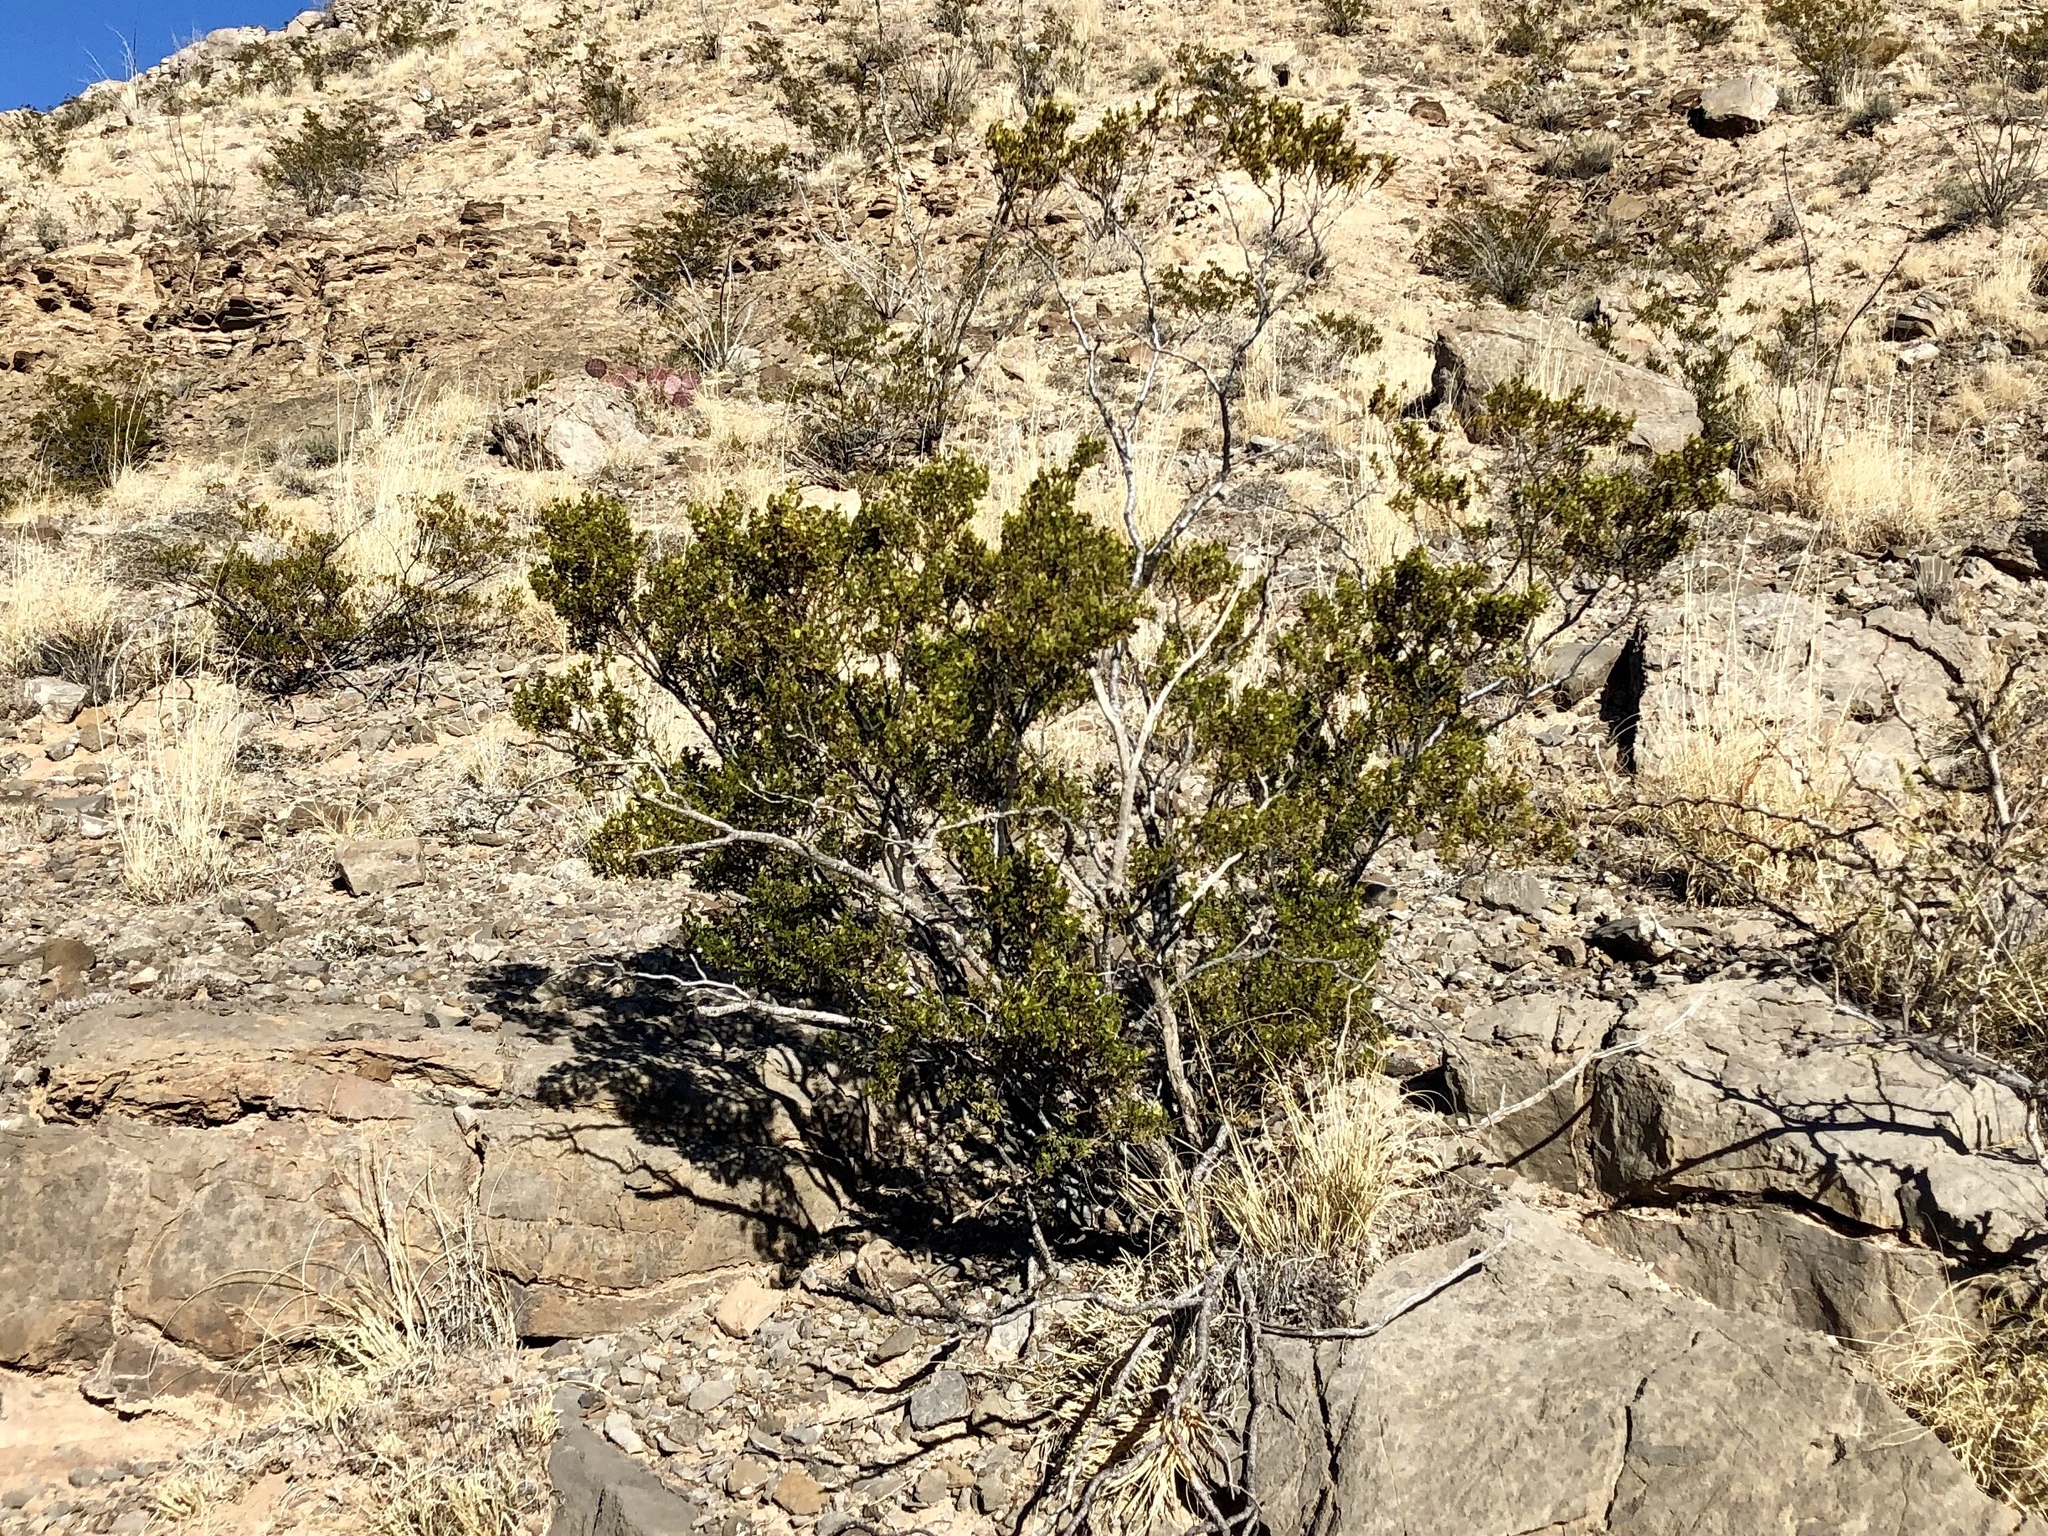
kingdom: Plantae
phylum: Tracheophyta
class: Magnoliopsida
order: Zygophyllales
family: Zygophyllaceae
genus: Larrea
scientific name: Larrea tridentata
